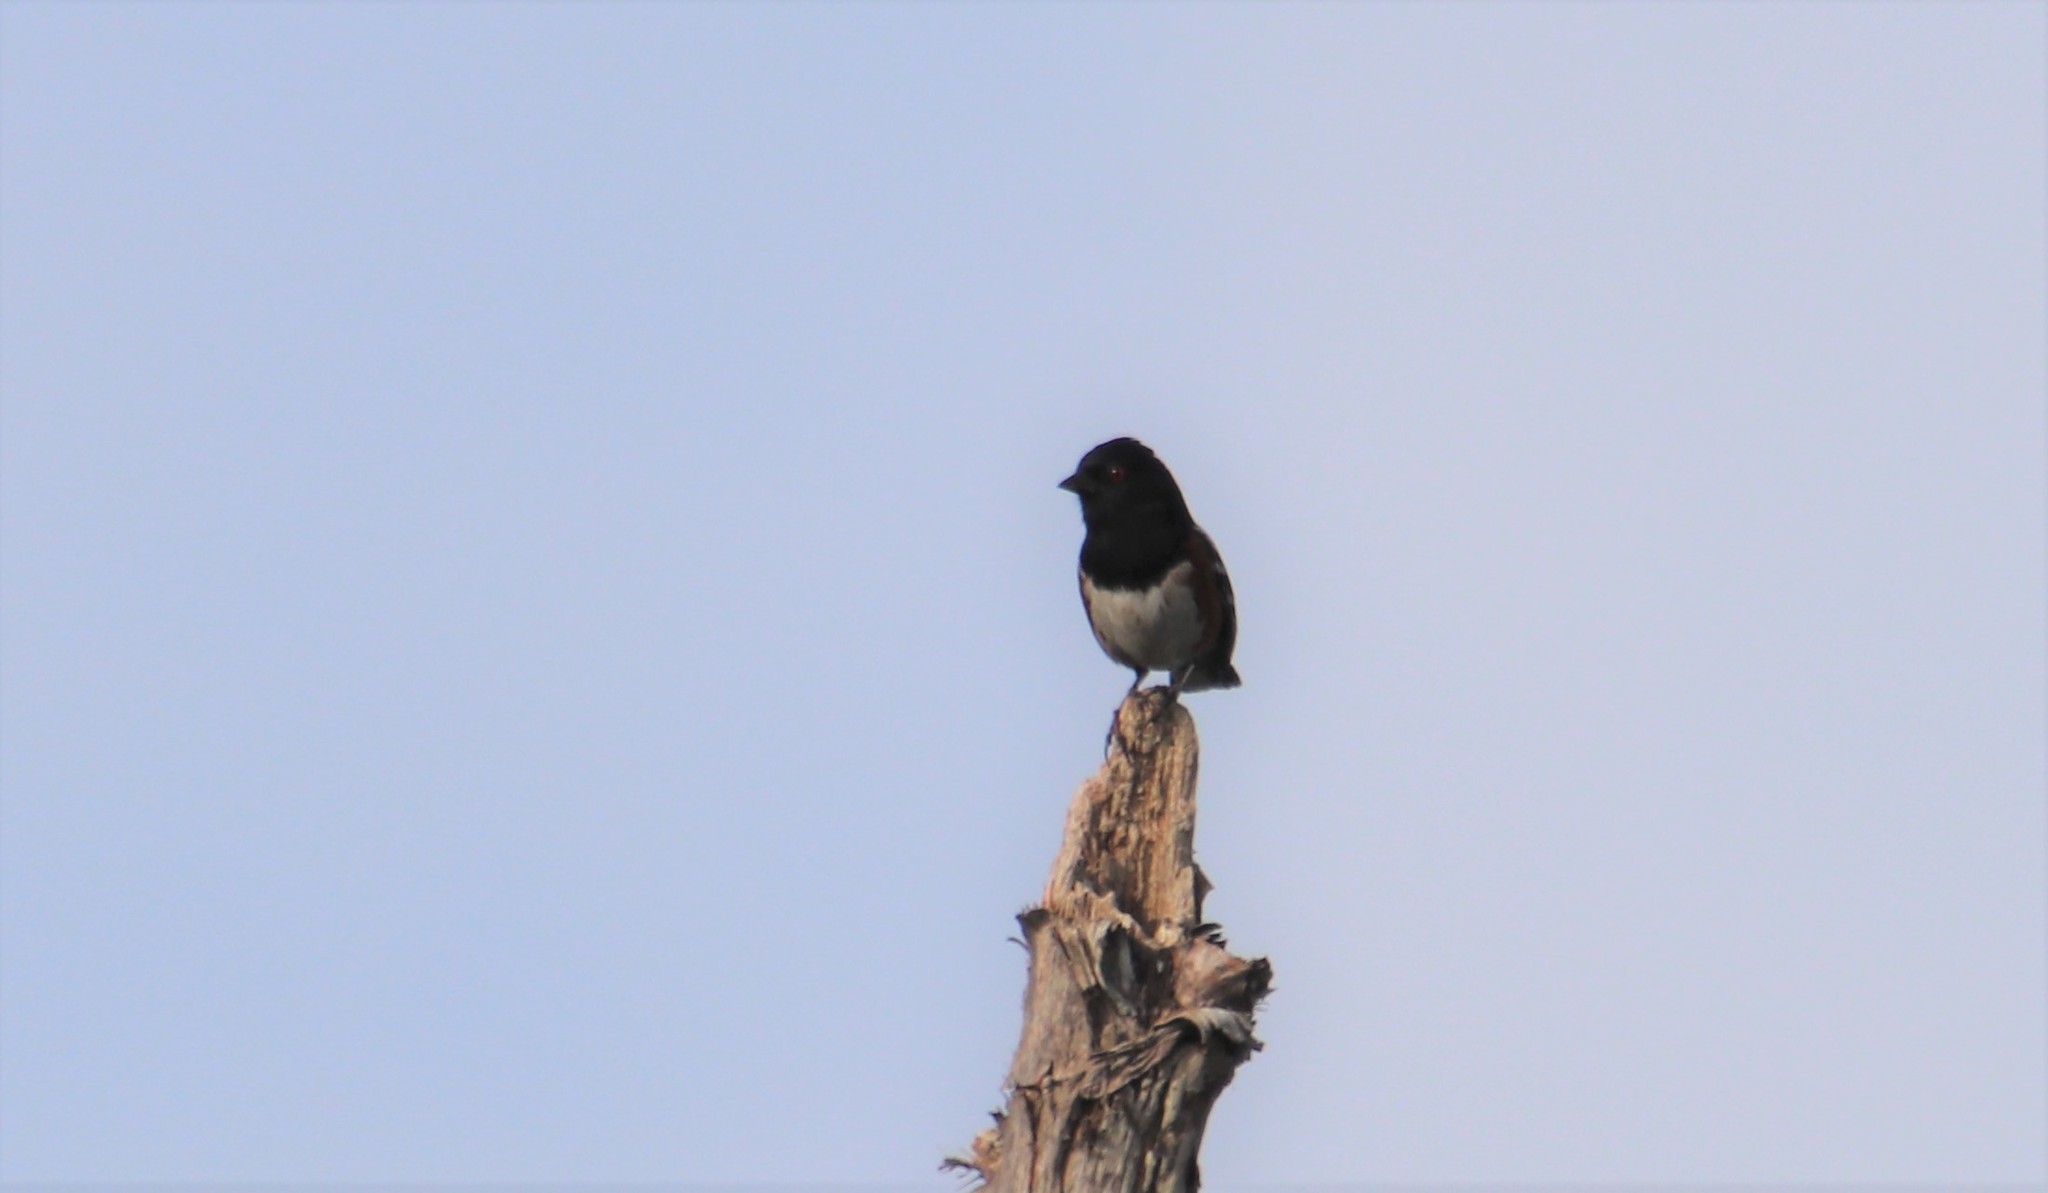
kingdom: Animalia
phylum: Chordata
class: Aves
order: Passeriformes
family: Passerellidae
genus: Pipilo
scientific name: Pipilo maculatus
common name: Spotted towhee
